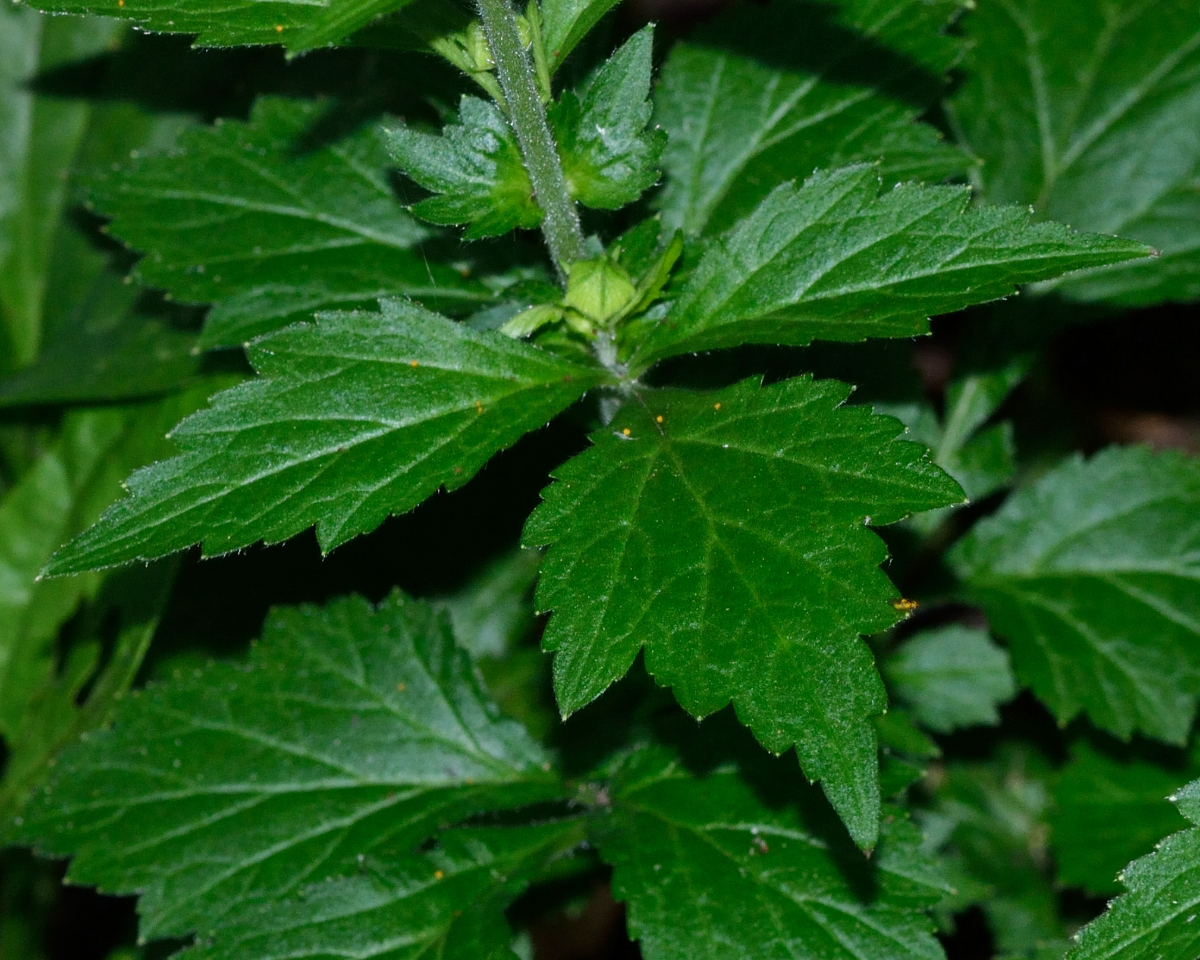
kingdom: Plantae
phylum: Tracheophyta
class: Magnoliopsida
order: Rosales
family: Rosaceae
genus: Geum
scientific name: Geum aleppicum
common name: Yellow avens
